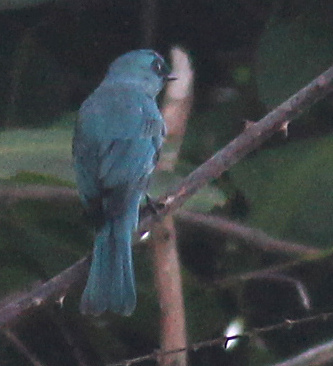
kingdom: Animalia
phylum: Chordata
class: Aves
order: Passeriformes
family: Muscicapidae
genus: Eumyias
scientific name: Eumyias thalassinus
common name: Verditer flycatcher
